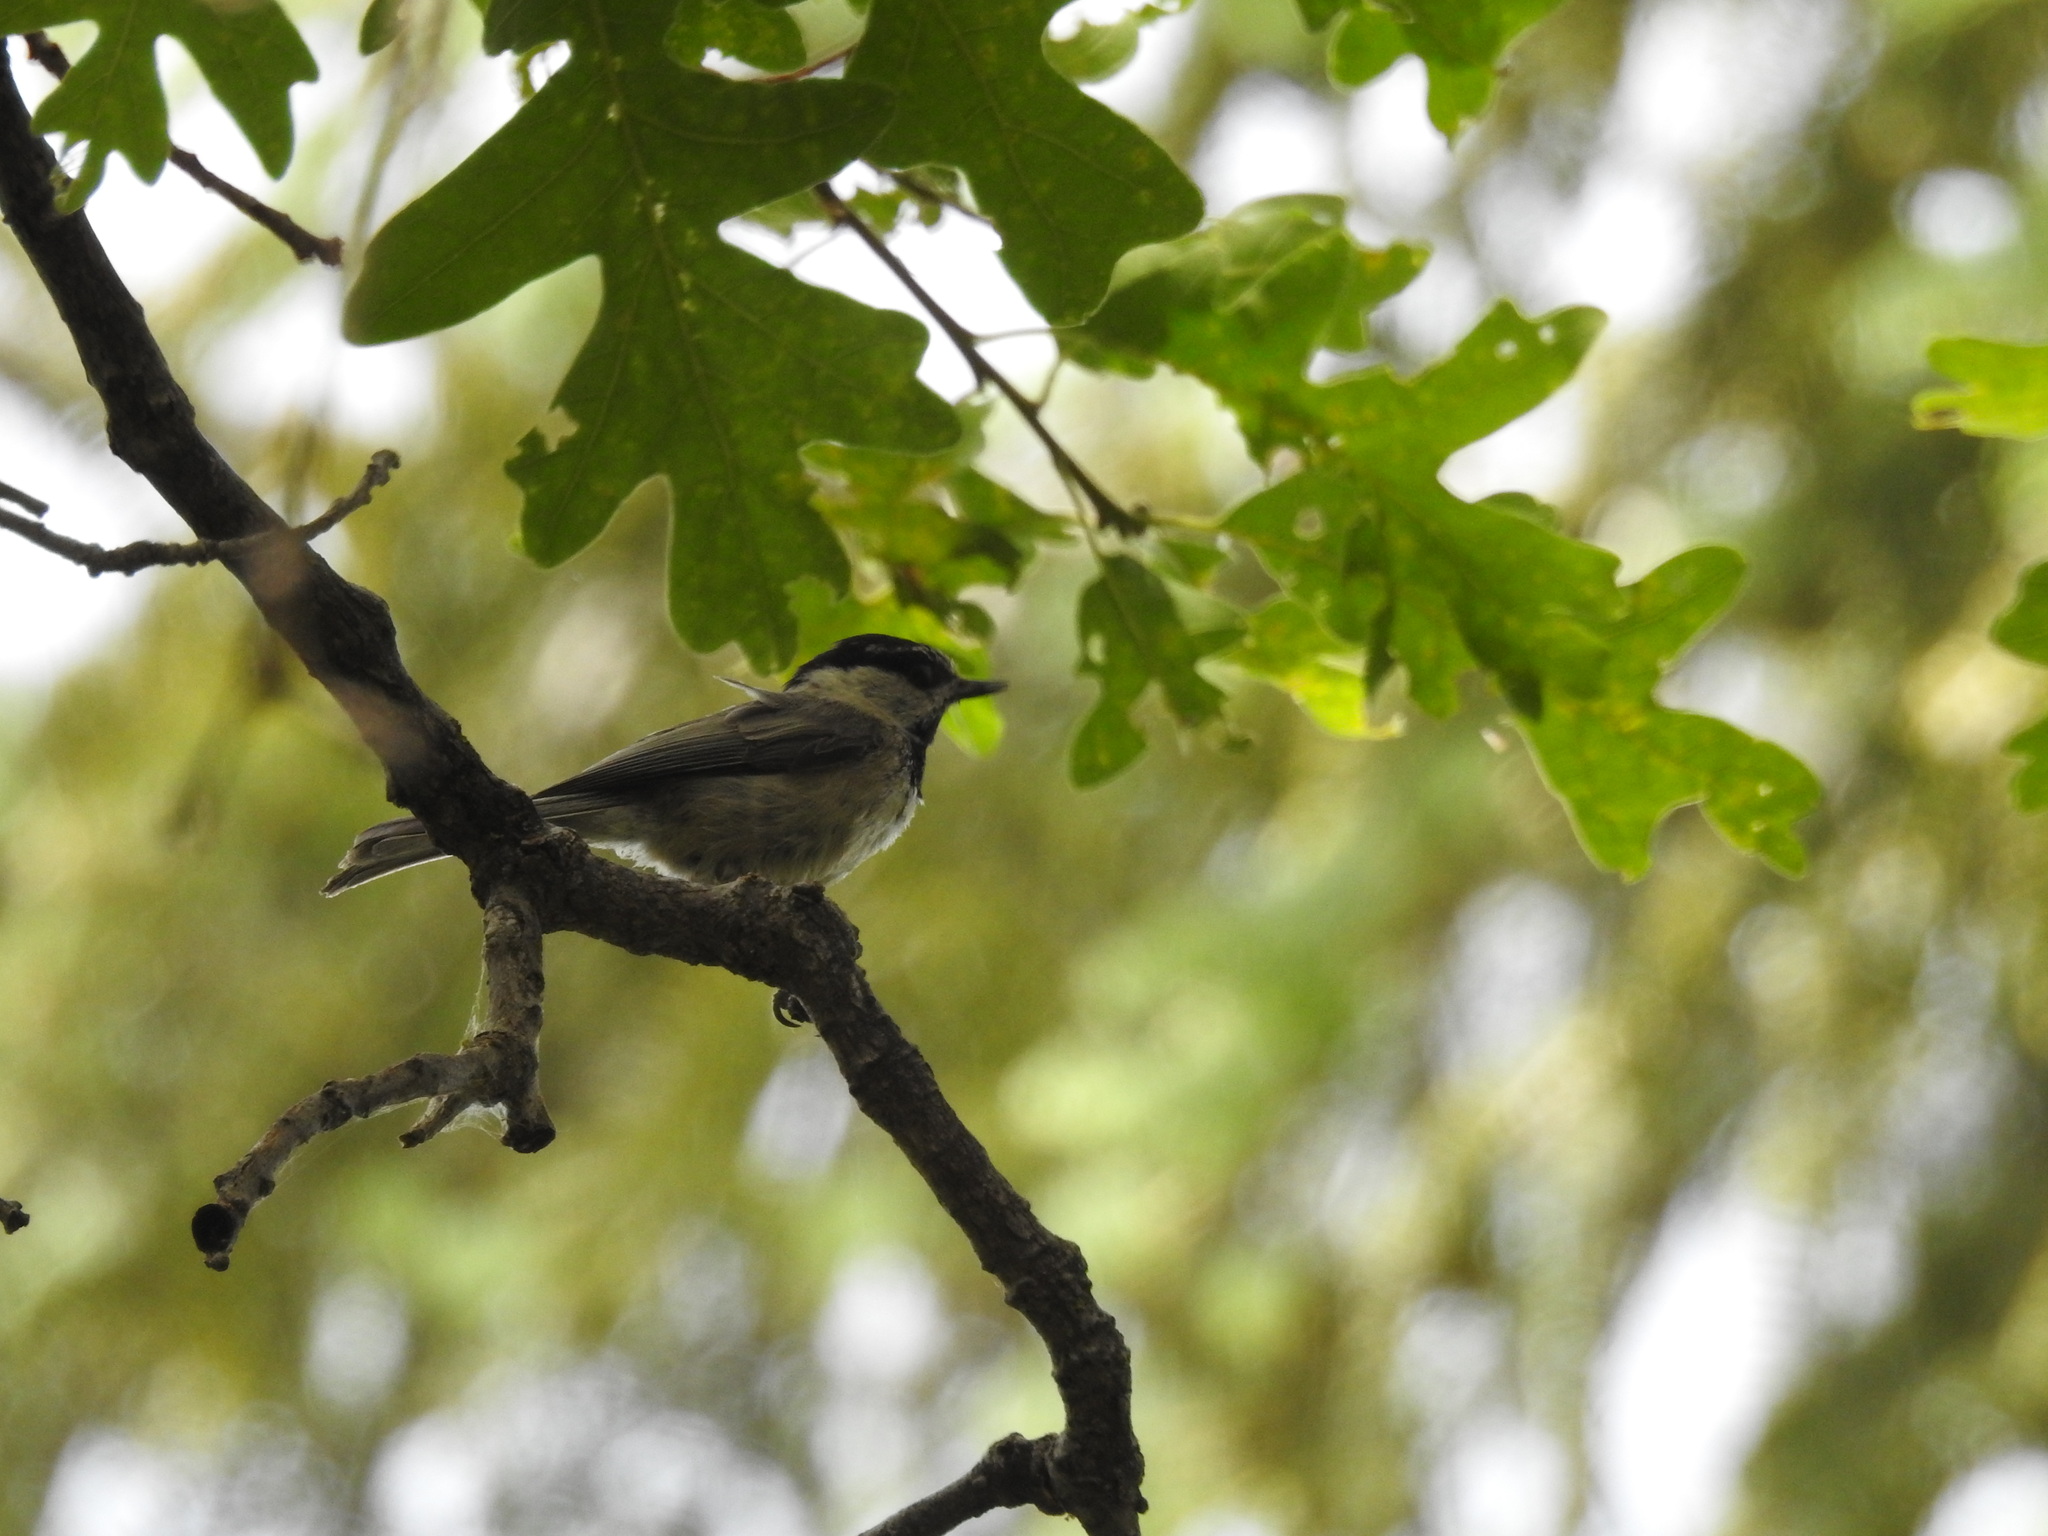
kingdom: Animalia
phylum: Chordata
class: Aves
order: Passeriformes
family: Paridae
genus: Poecile
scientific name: Poecile gambeli
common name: Mountain chickadee
